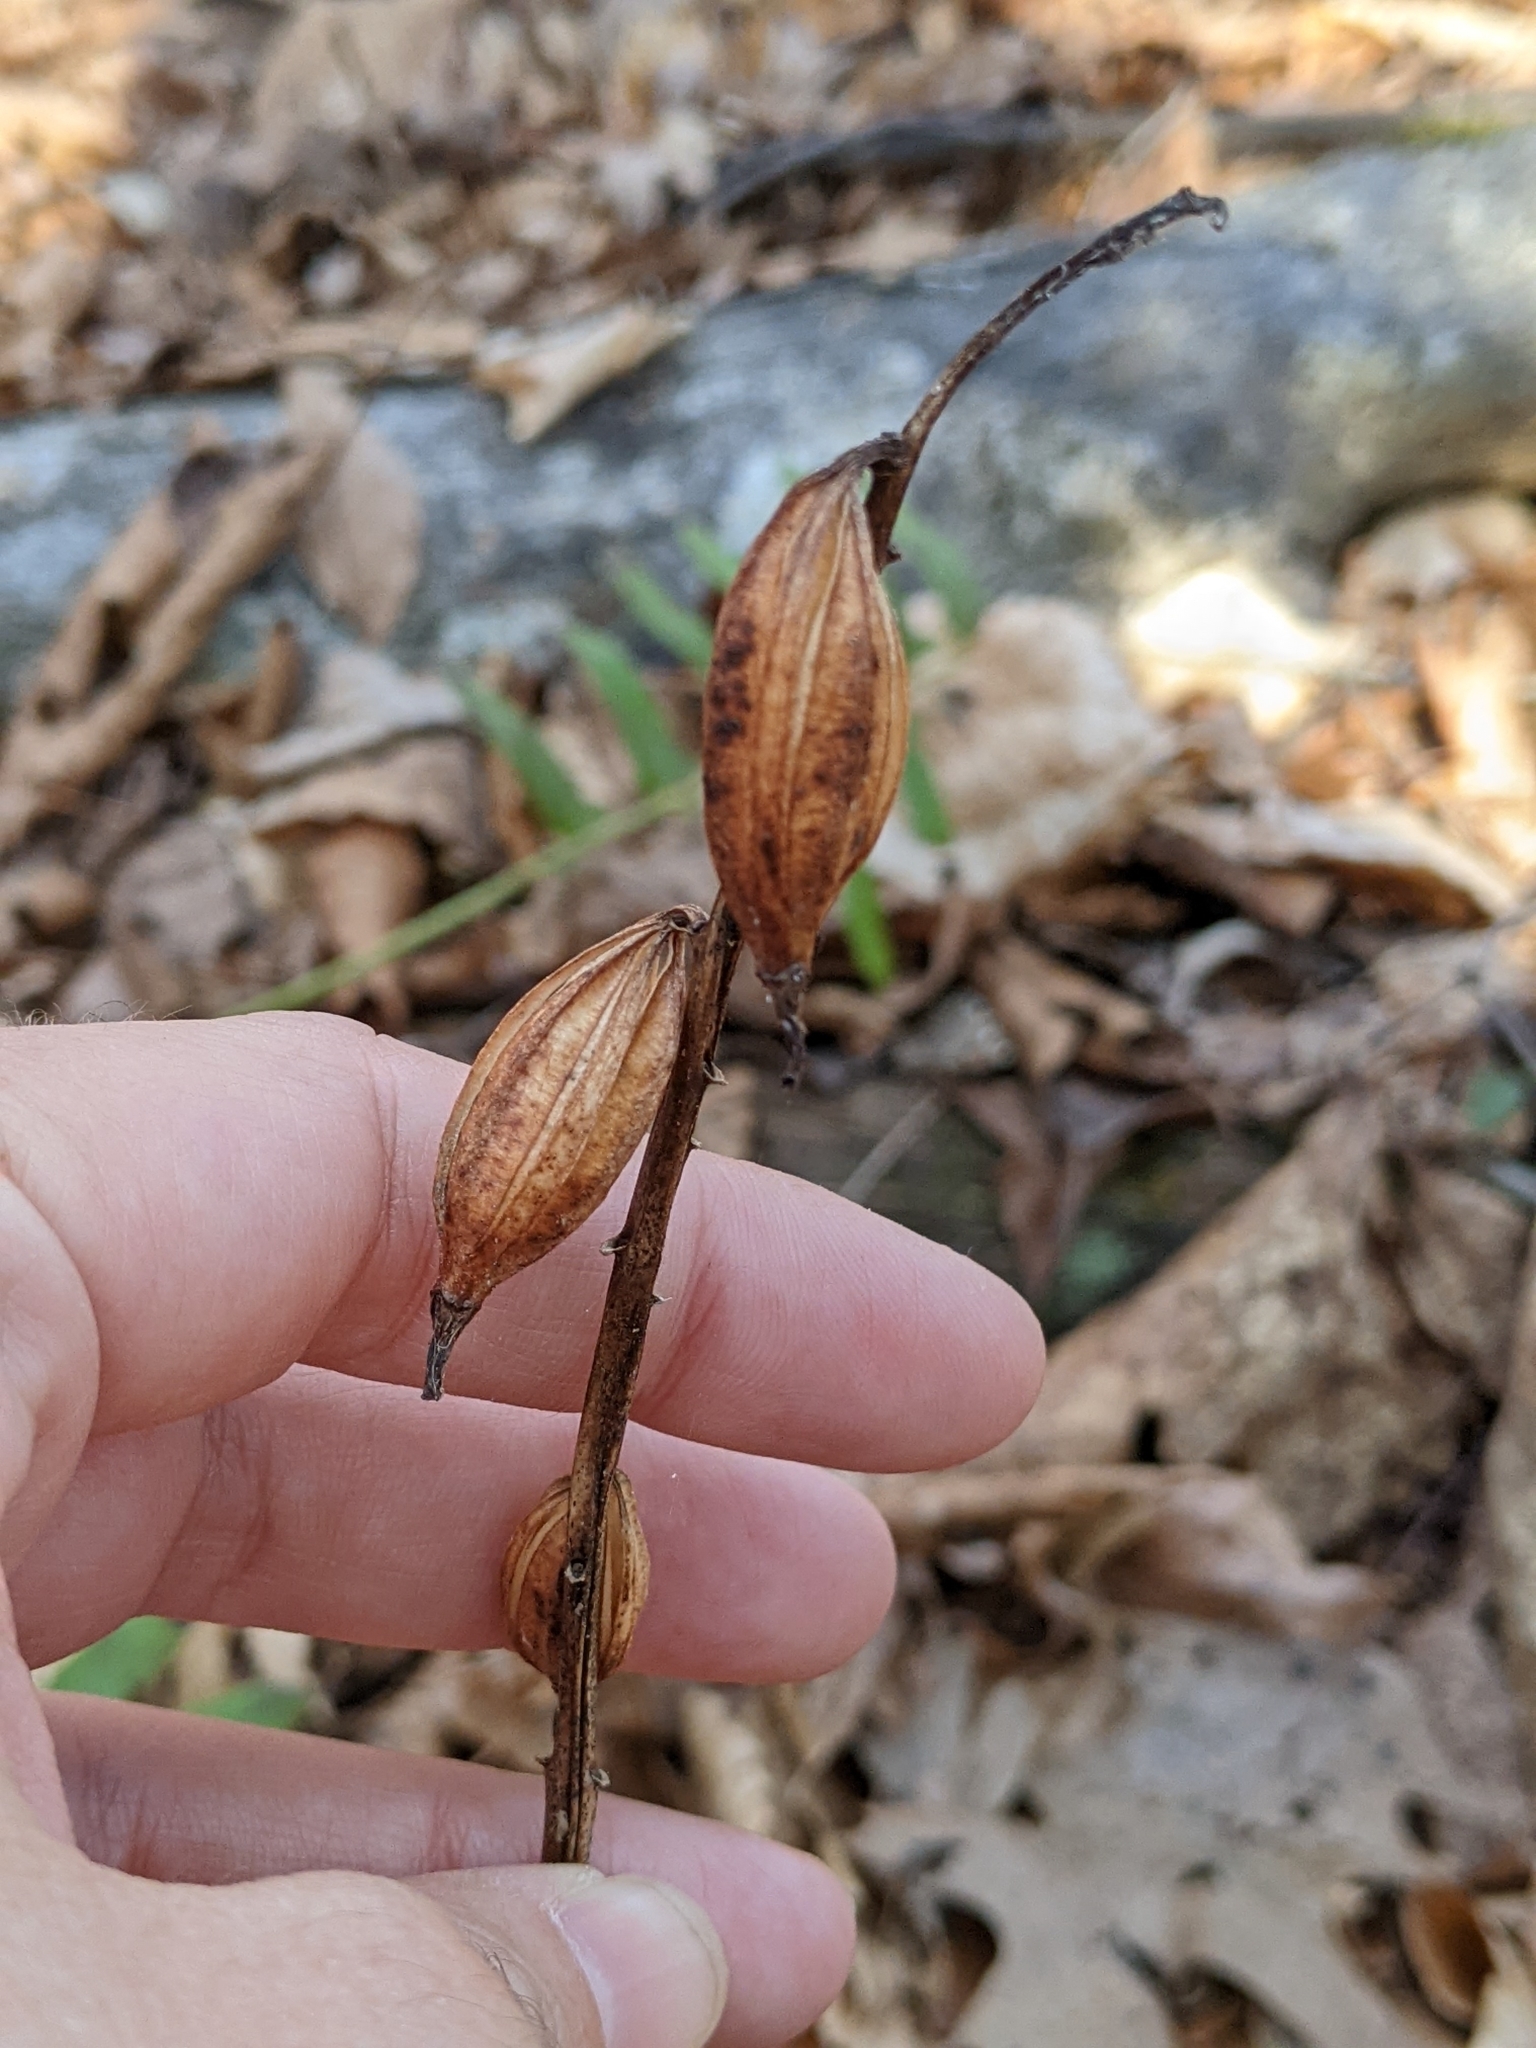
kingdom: Plantae
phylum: Tracheophyta
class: Liliopsida
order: Asparagales
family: Orchidaceae
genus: Aplectrum
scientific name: Aplectrum hyemale
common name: Adam-and-eve
